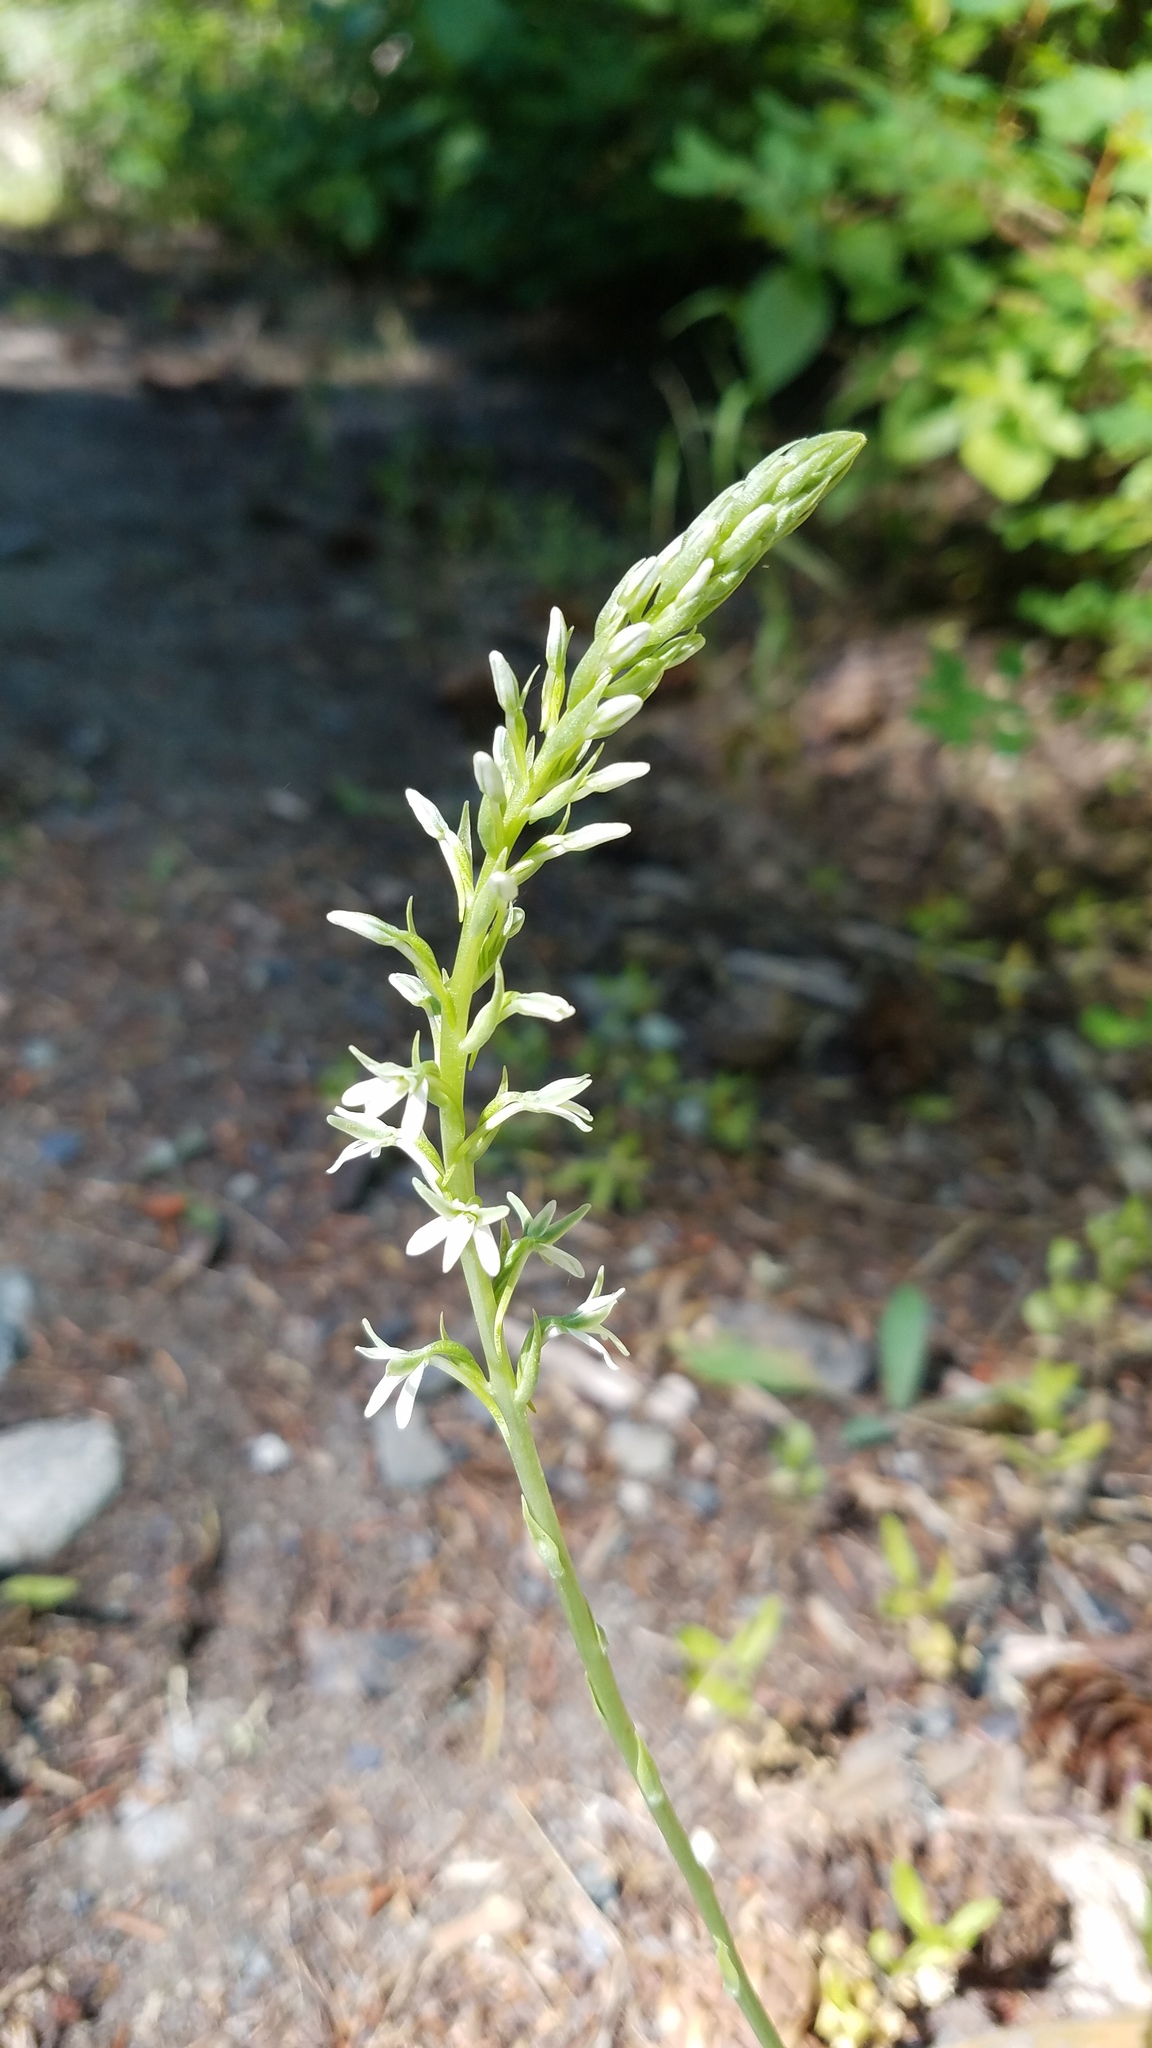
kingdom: Plantae
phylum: Tracheophyta
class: Liliopsida
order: Asparagales
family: Orchidaceae
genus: Platanthera
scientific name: Platanthera elegans
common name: Coast piperia
